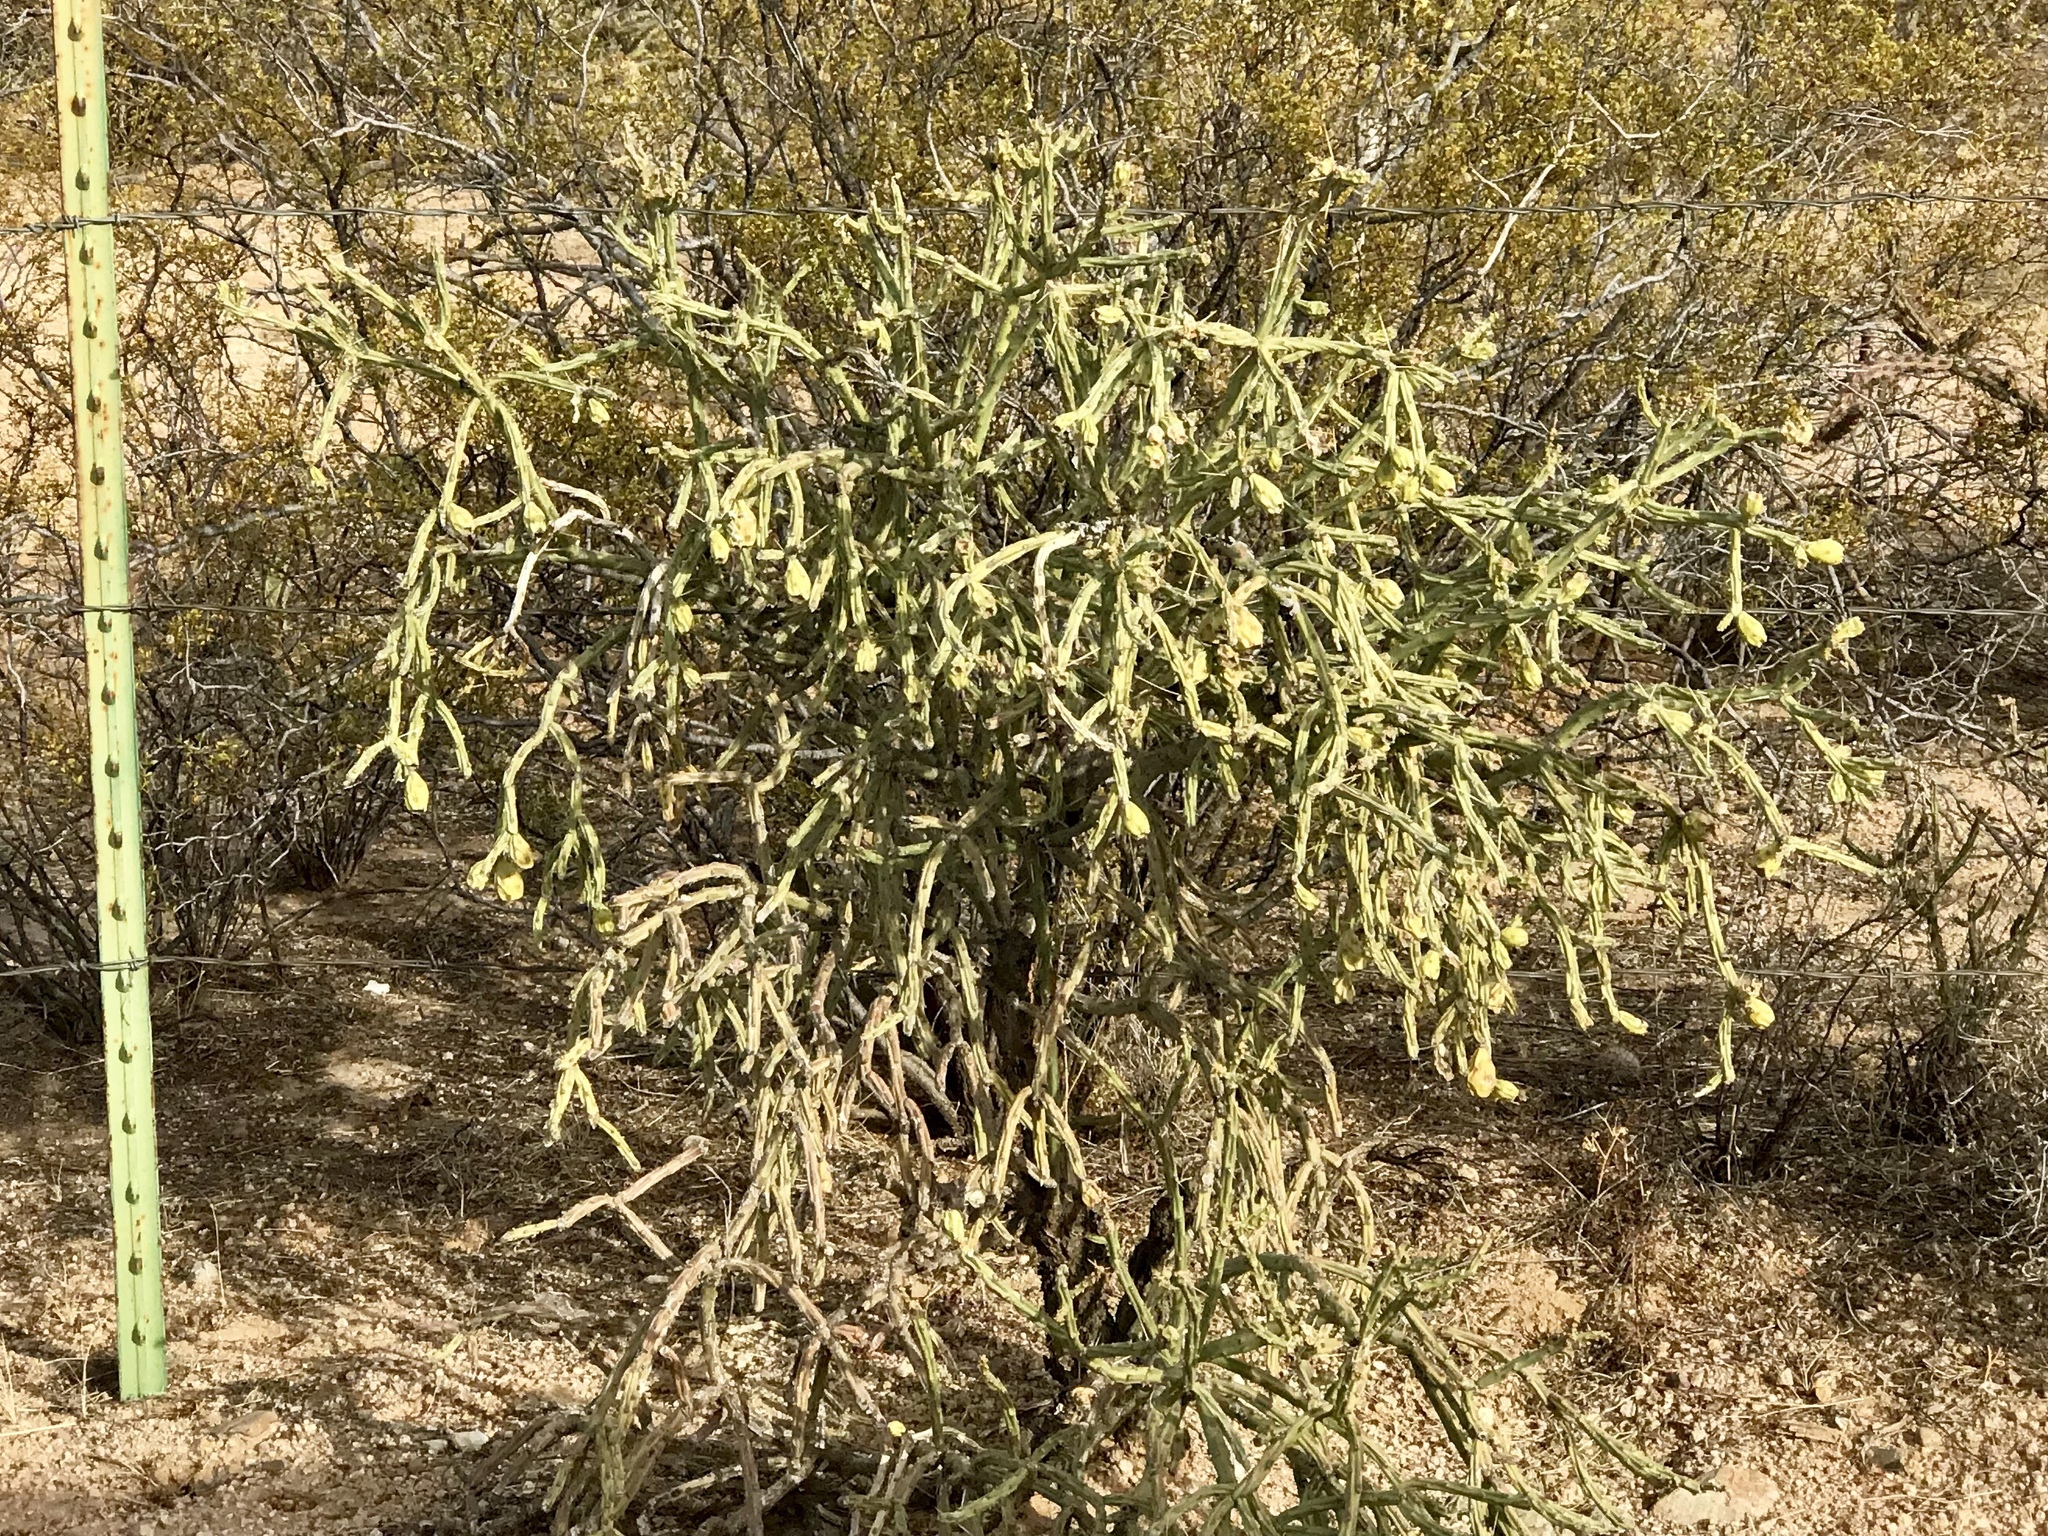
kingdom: Plantae
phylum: Tracheophyta
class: Magnoliopsida
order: Caryophyllales
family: Cactaceae
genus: Cylindropuntia
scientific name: Cylindropuntia arbuscula
